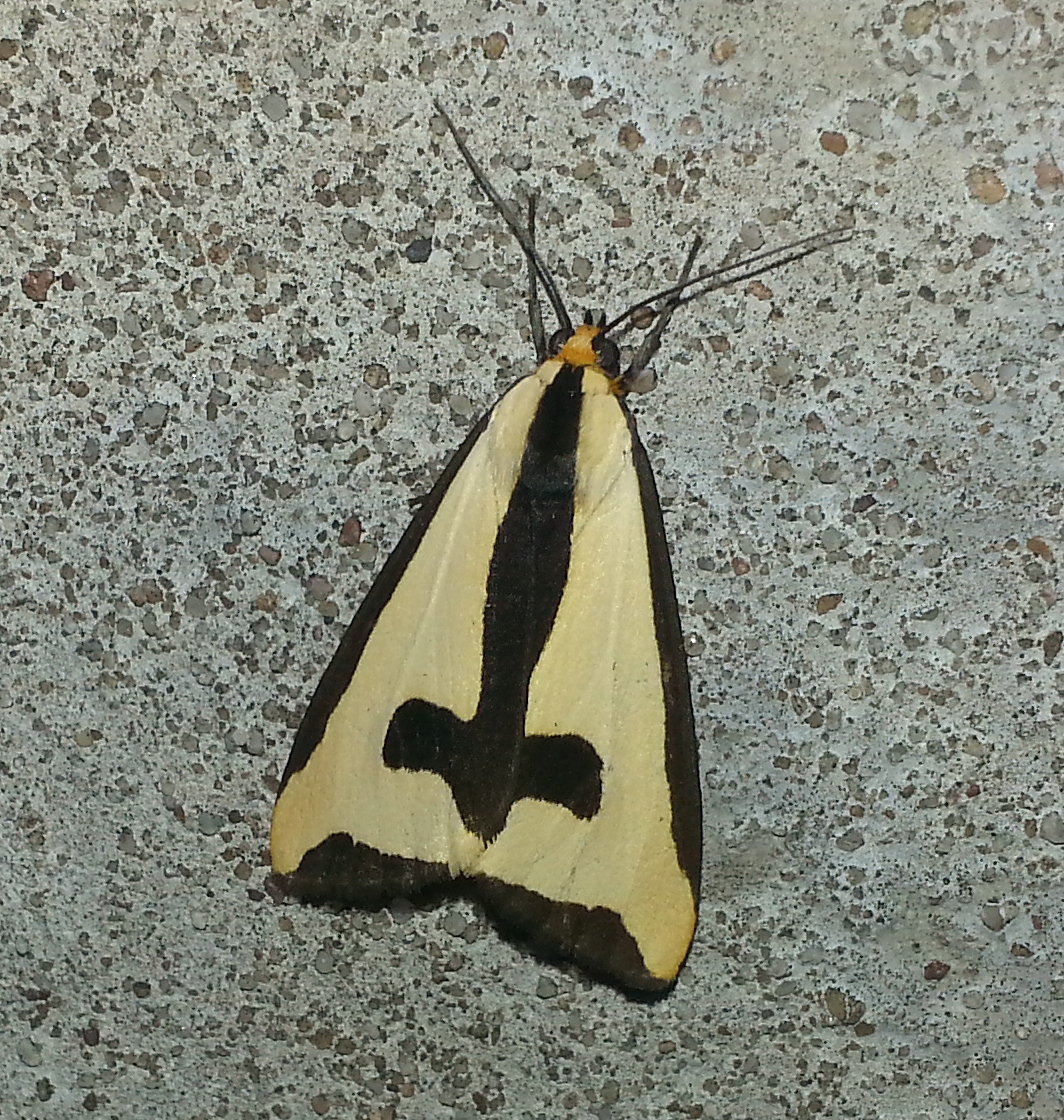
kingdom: Animalia
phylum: Arthropoda
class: Insecta
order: Lepidoptera
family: Erebidae
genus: Haploa
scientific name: Haploa clymene
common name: Clymene moth
